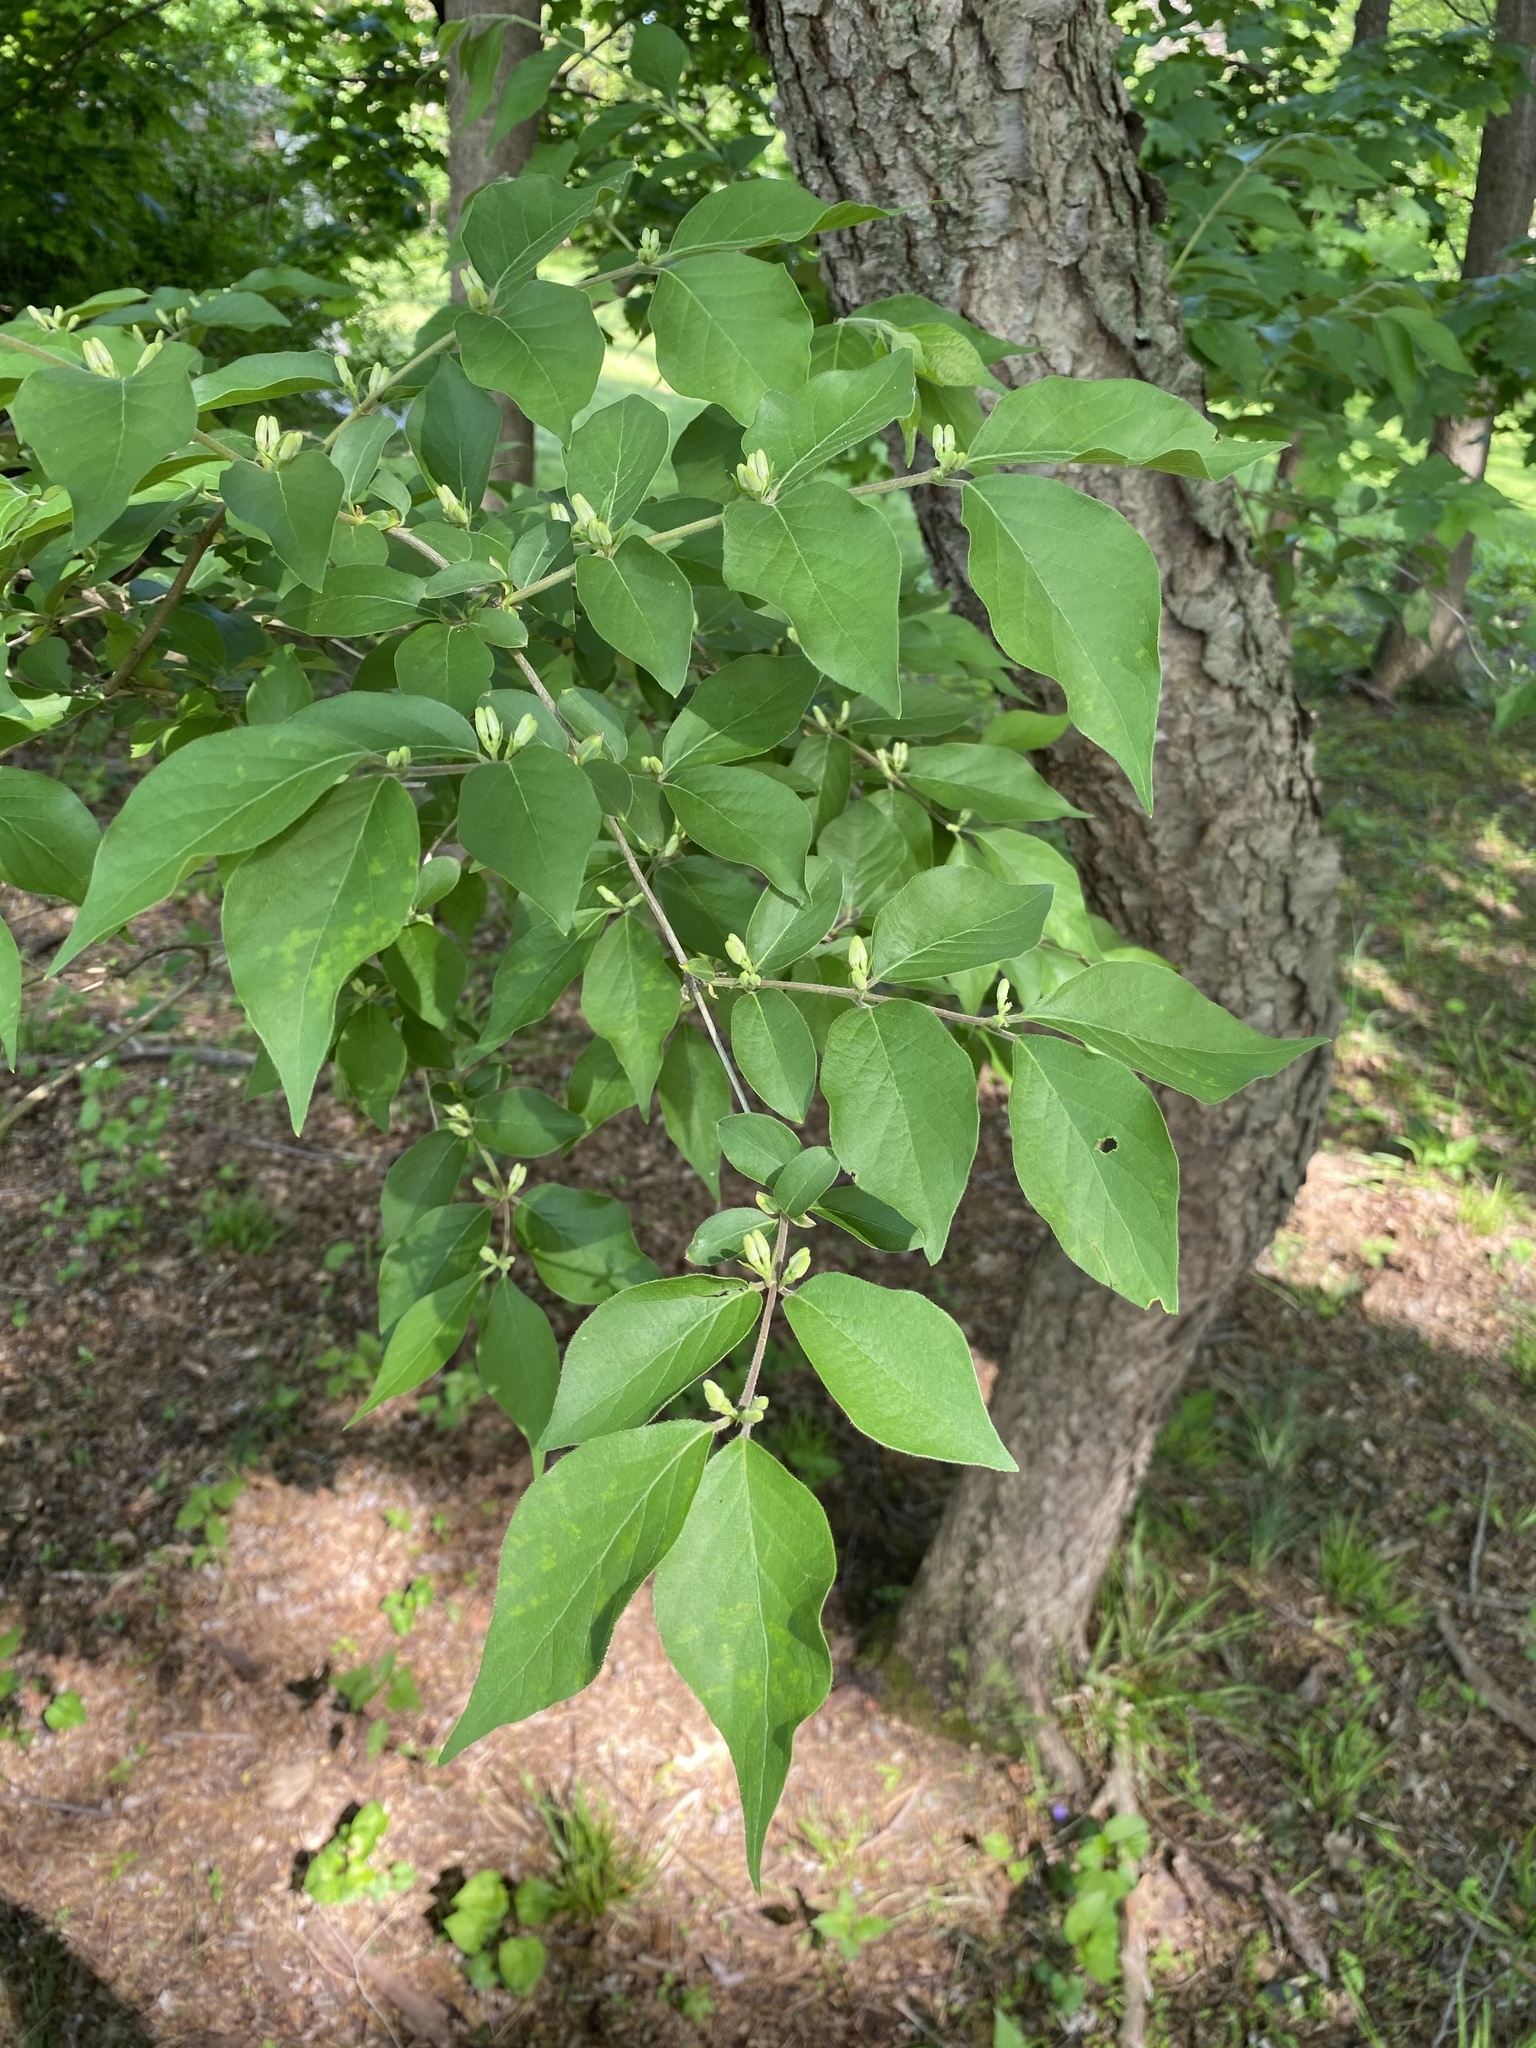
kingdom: Plantae
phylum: Tracheophyta
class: Magnoliopsida
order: Dipsacales
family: Caprifoliaceae
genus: Lonicera
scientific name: Lonicera maackii
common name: Amur honeysuckle
